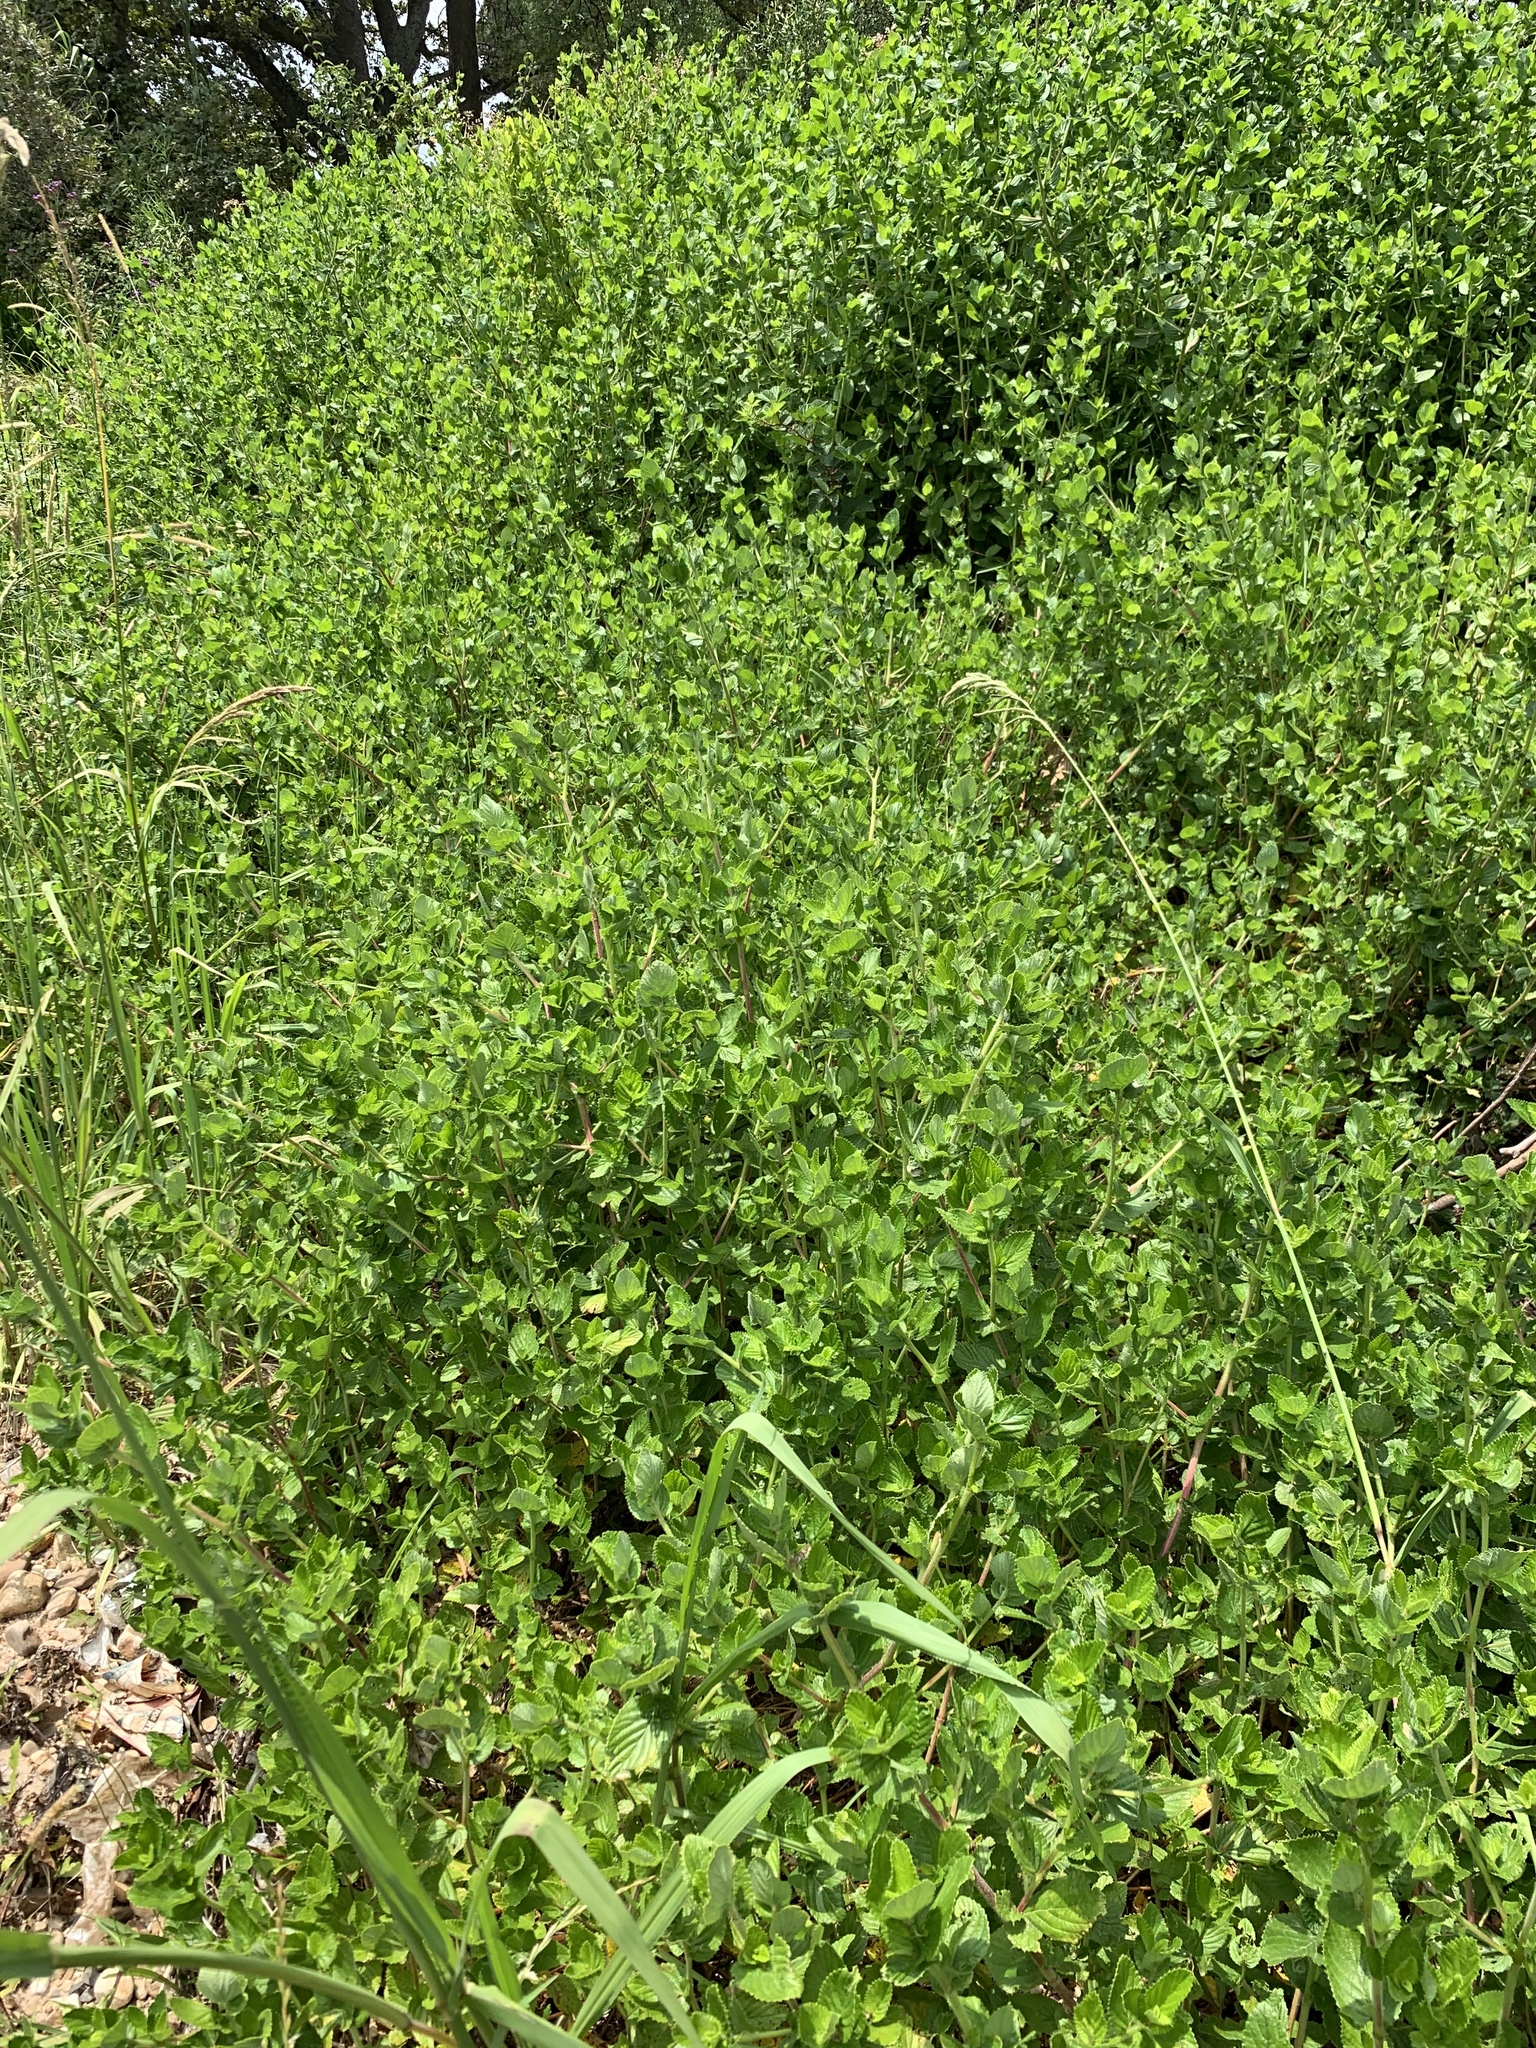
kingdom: Plantae
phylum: Tracheophyta
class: Magnoliopsida
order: Rosales
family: Rosaceae
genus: Cliffortia
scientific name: Cliffortia odorata
